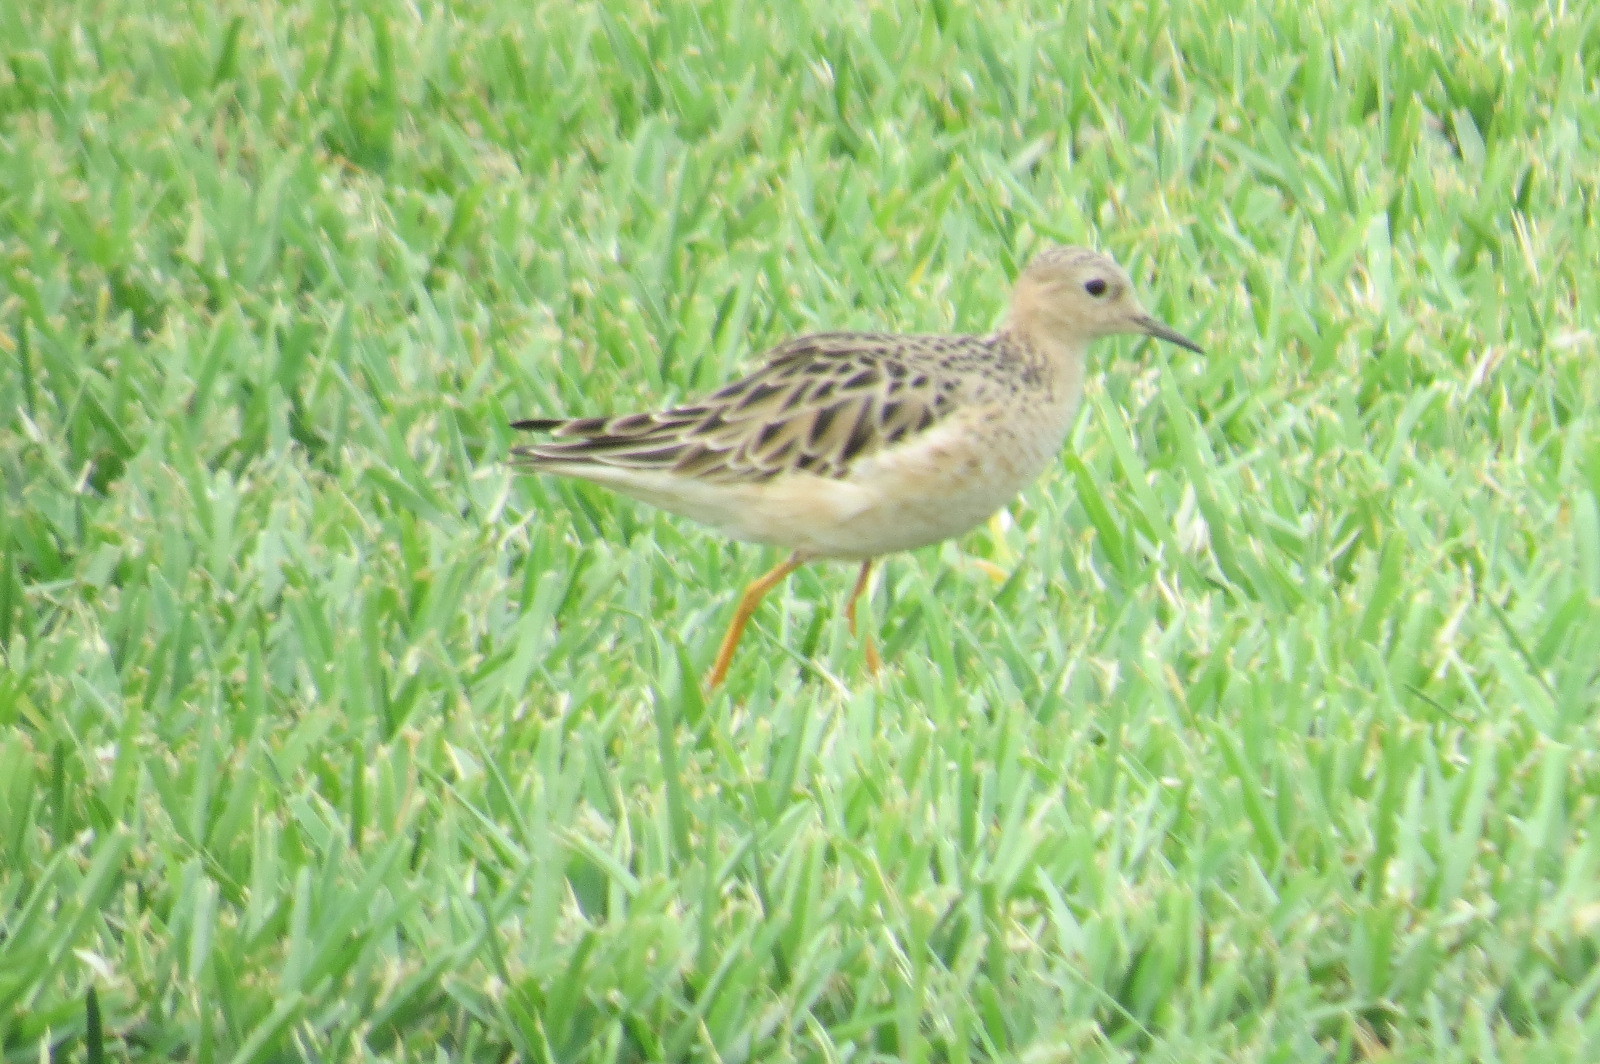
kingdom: Animalia
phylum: Chordata
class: Aves
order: Charadriiformes
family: Scolopacidae
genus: Calidris
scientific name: Calidris subruficollis
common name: Buff-breasted sandpiper
